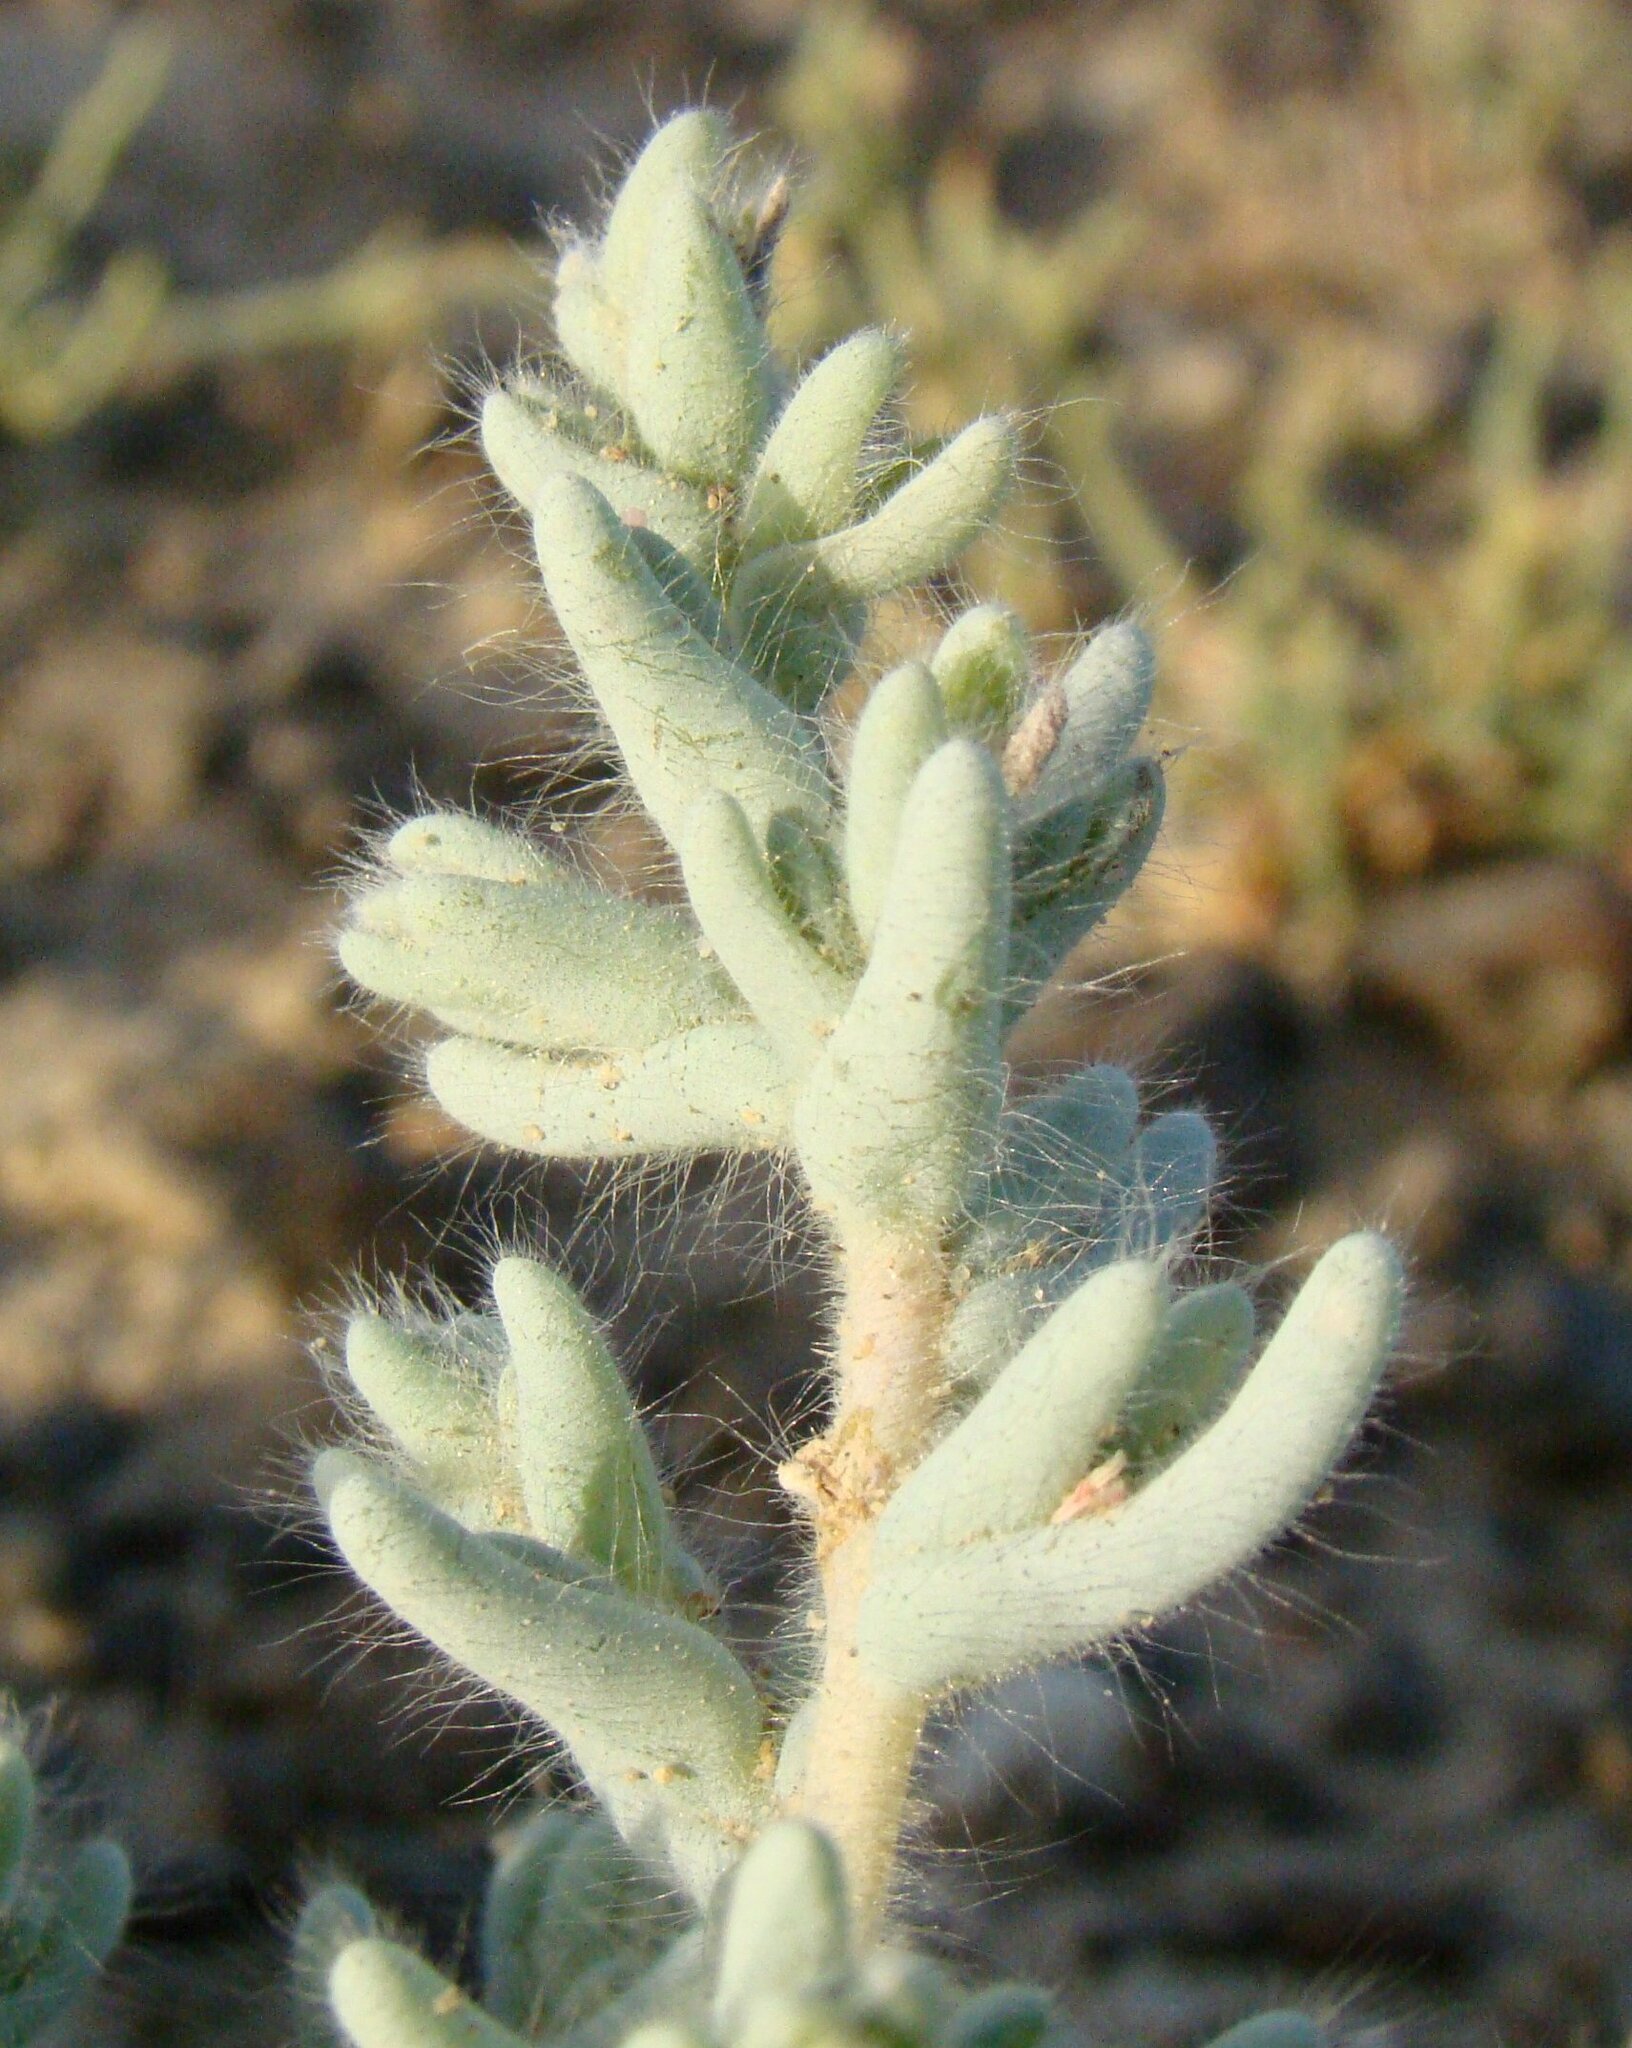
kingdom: Plantae
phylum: Tracheophyta
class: Magnoliopsida
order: Caryophyllales
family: Amaranthaceae
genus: Climacoptera
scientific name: Climacoptera lanata
